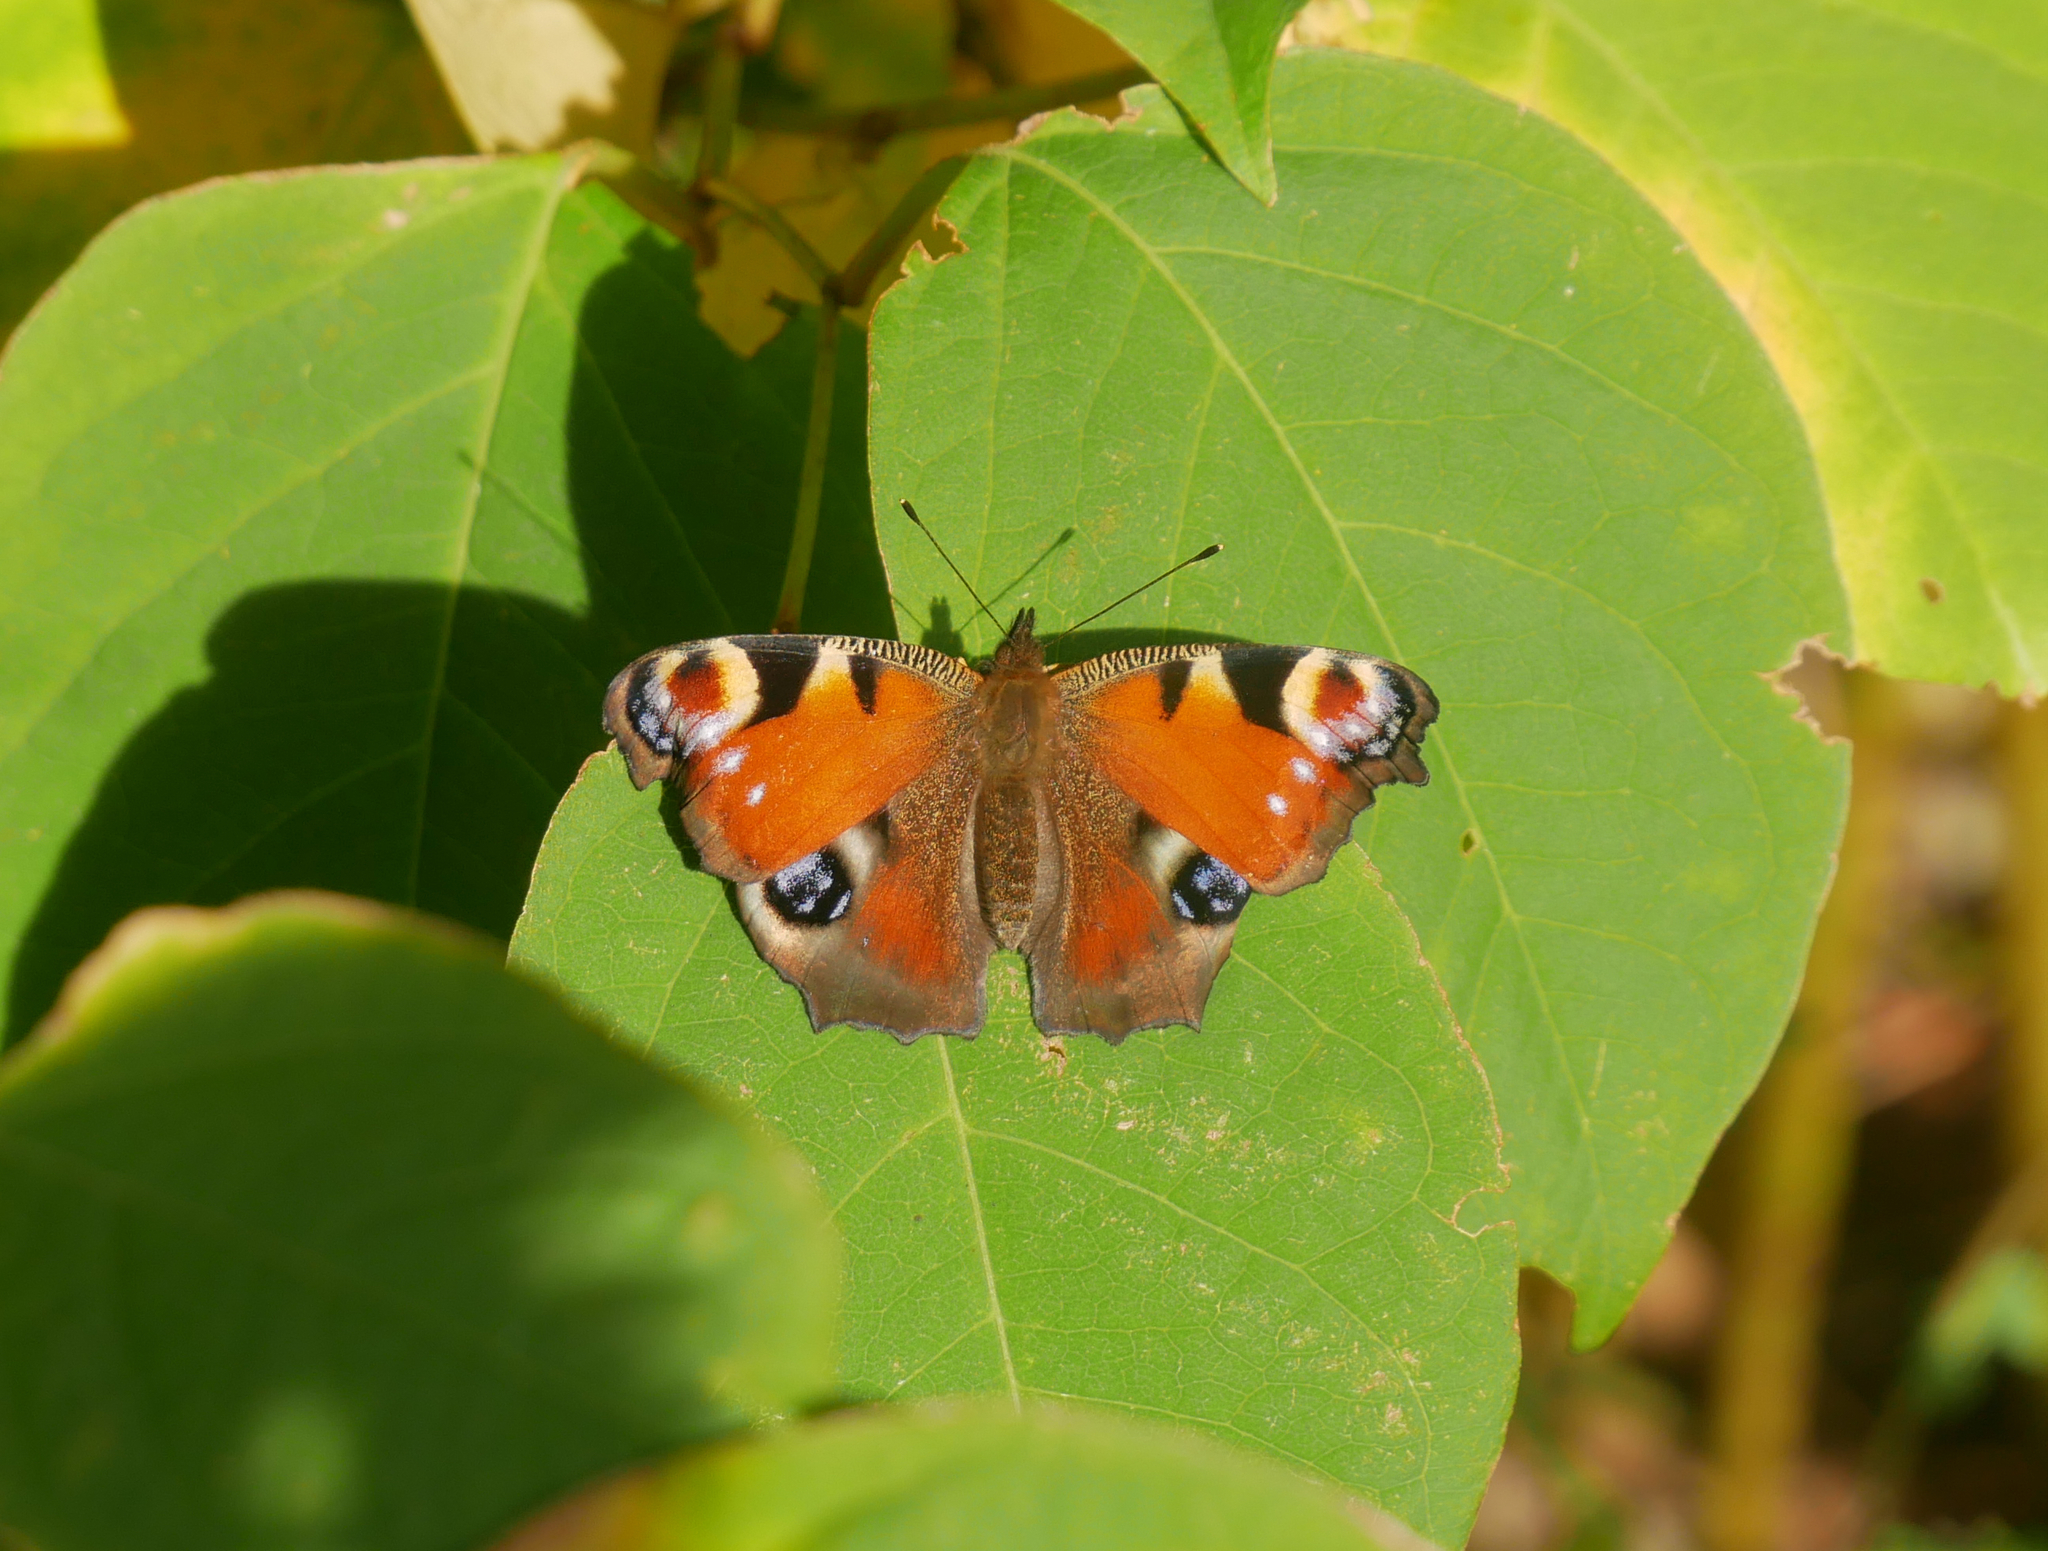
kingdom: Animalia
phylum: Arthropoda
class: Insecta
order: Lepidoptera
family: Nymphalidae
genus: Aglais
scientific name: Aglais io
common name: Peacock
